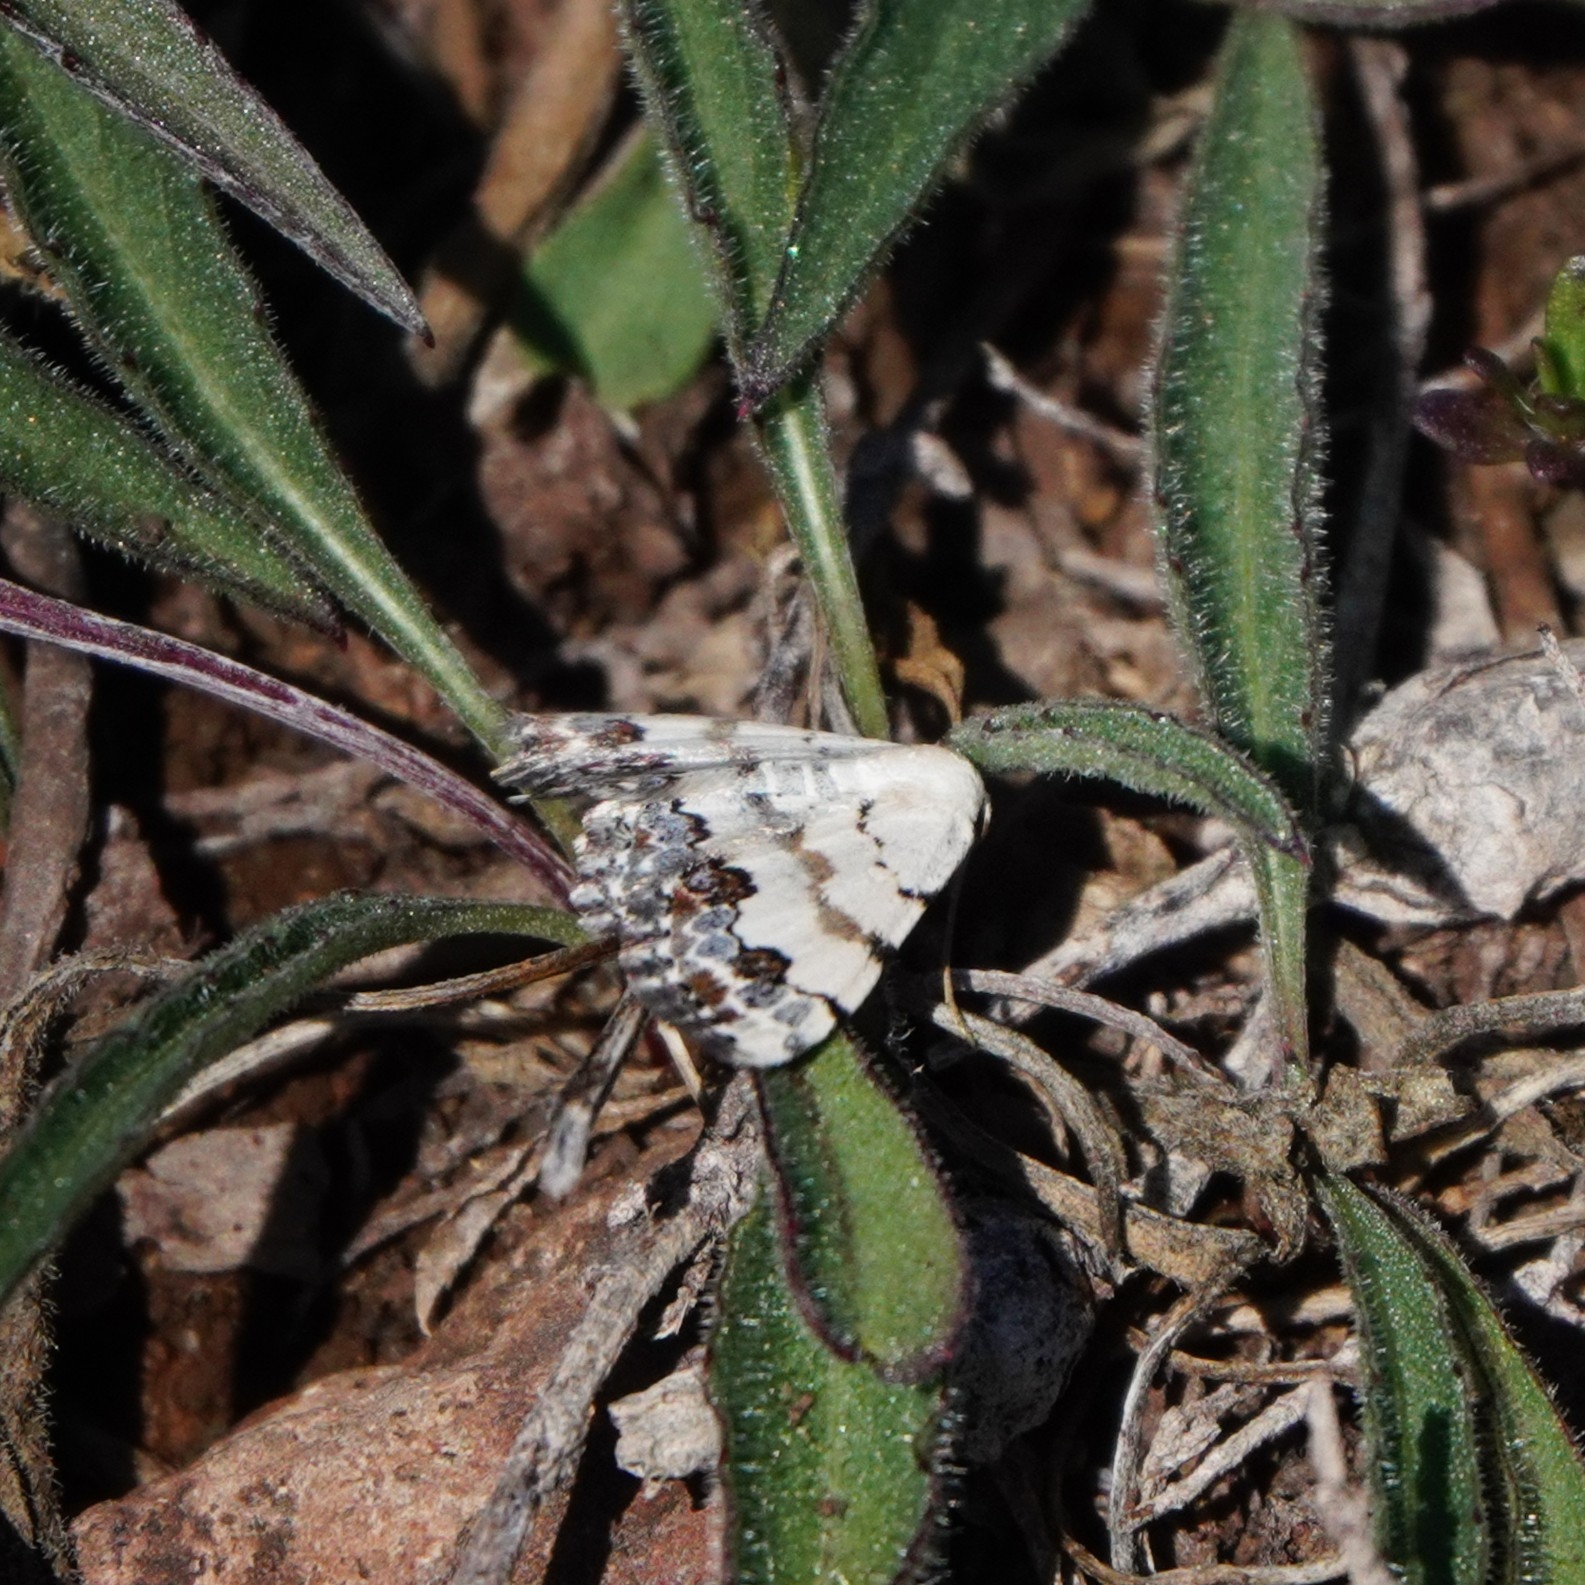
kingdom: Animalia
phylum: Arthropoda
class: Insecta
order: Lepidoptera
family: Geometridae
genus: Scopula
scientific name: Scopula decorata
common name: Middle lace border
